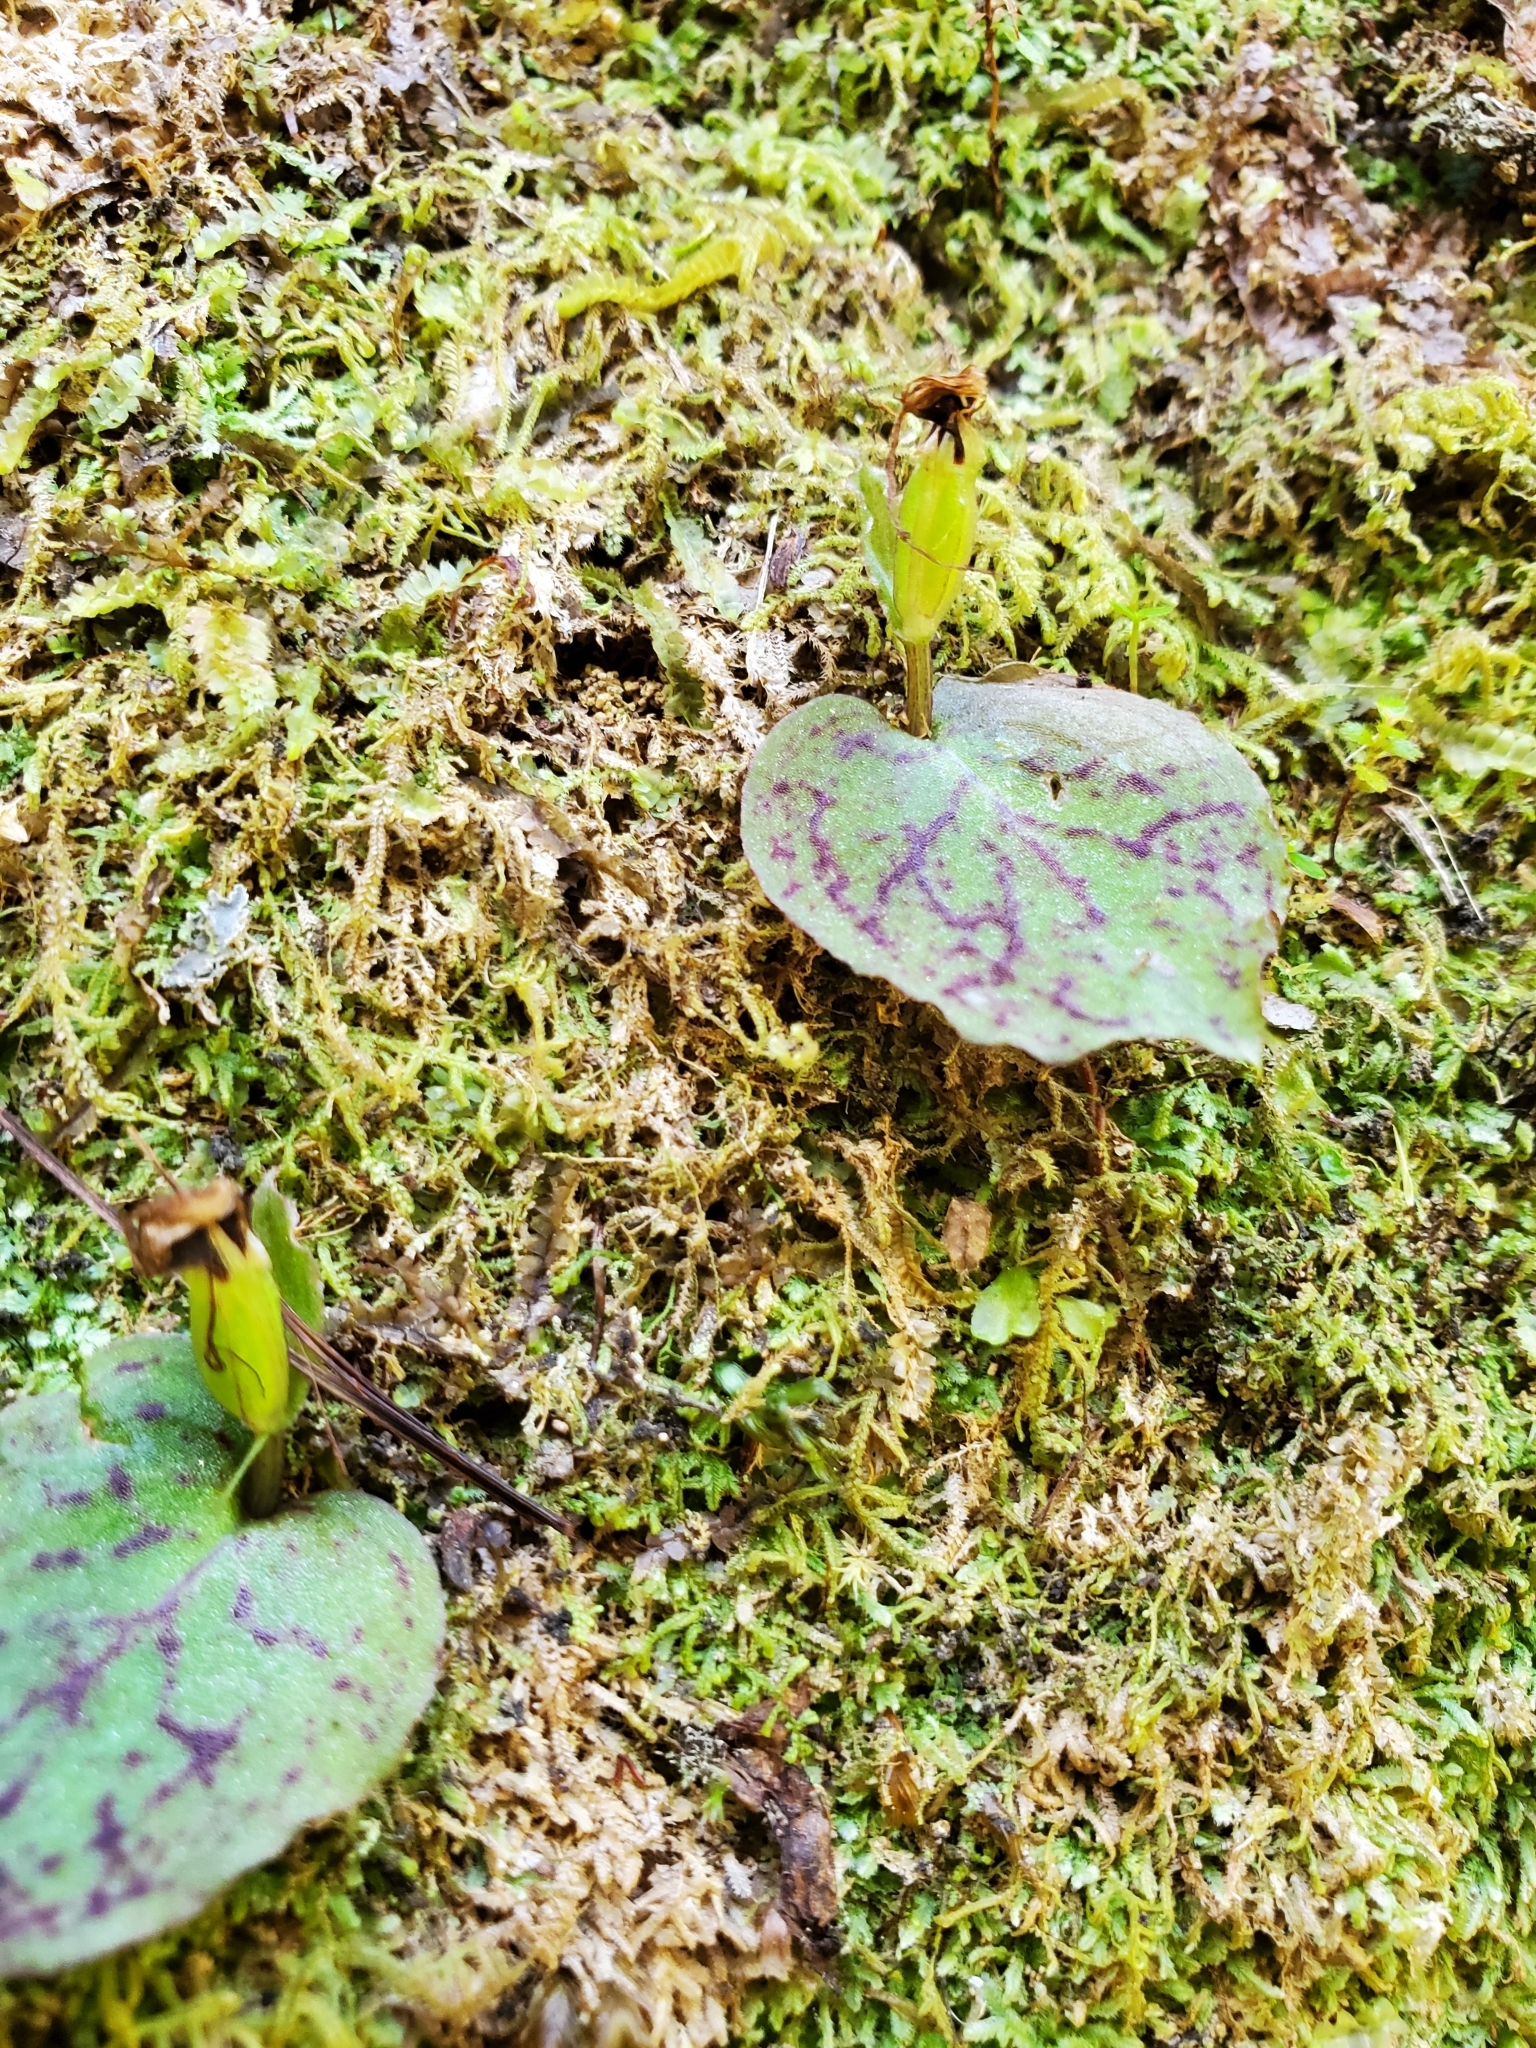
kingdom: Plantae
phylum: Tracheophyta
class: Liliopsida
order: Asparagales
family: Orchidaceae
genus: Corybas
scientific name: Corybas oblongus
